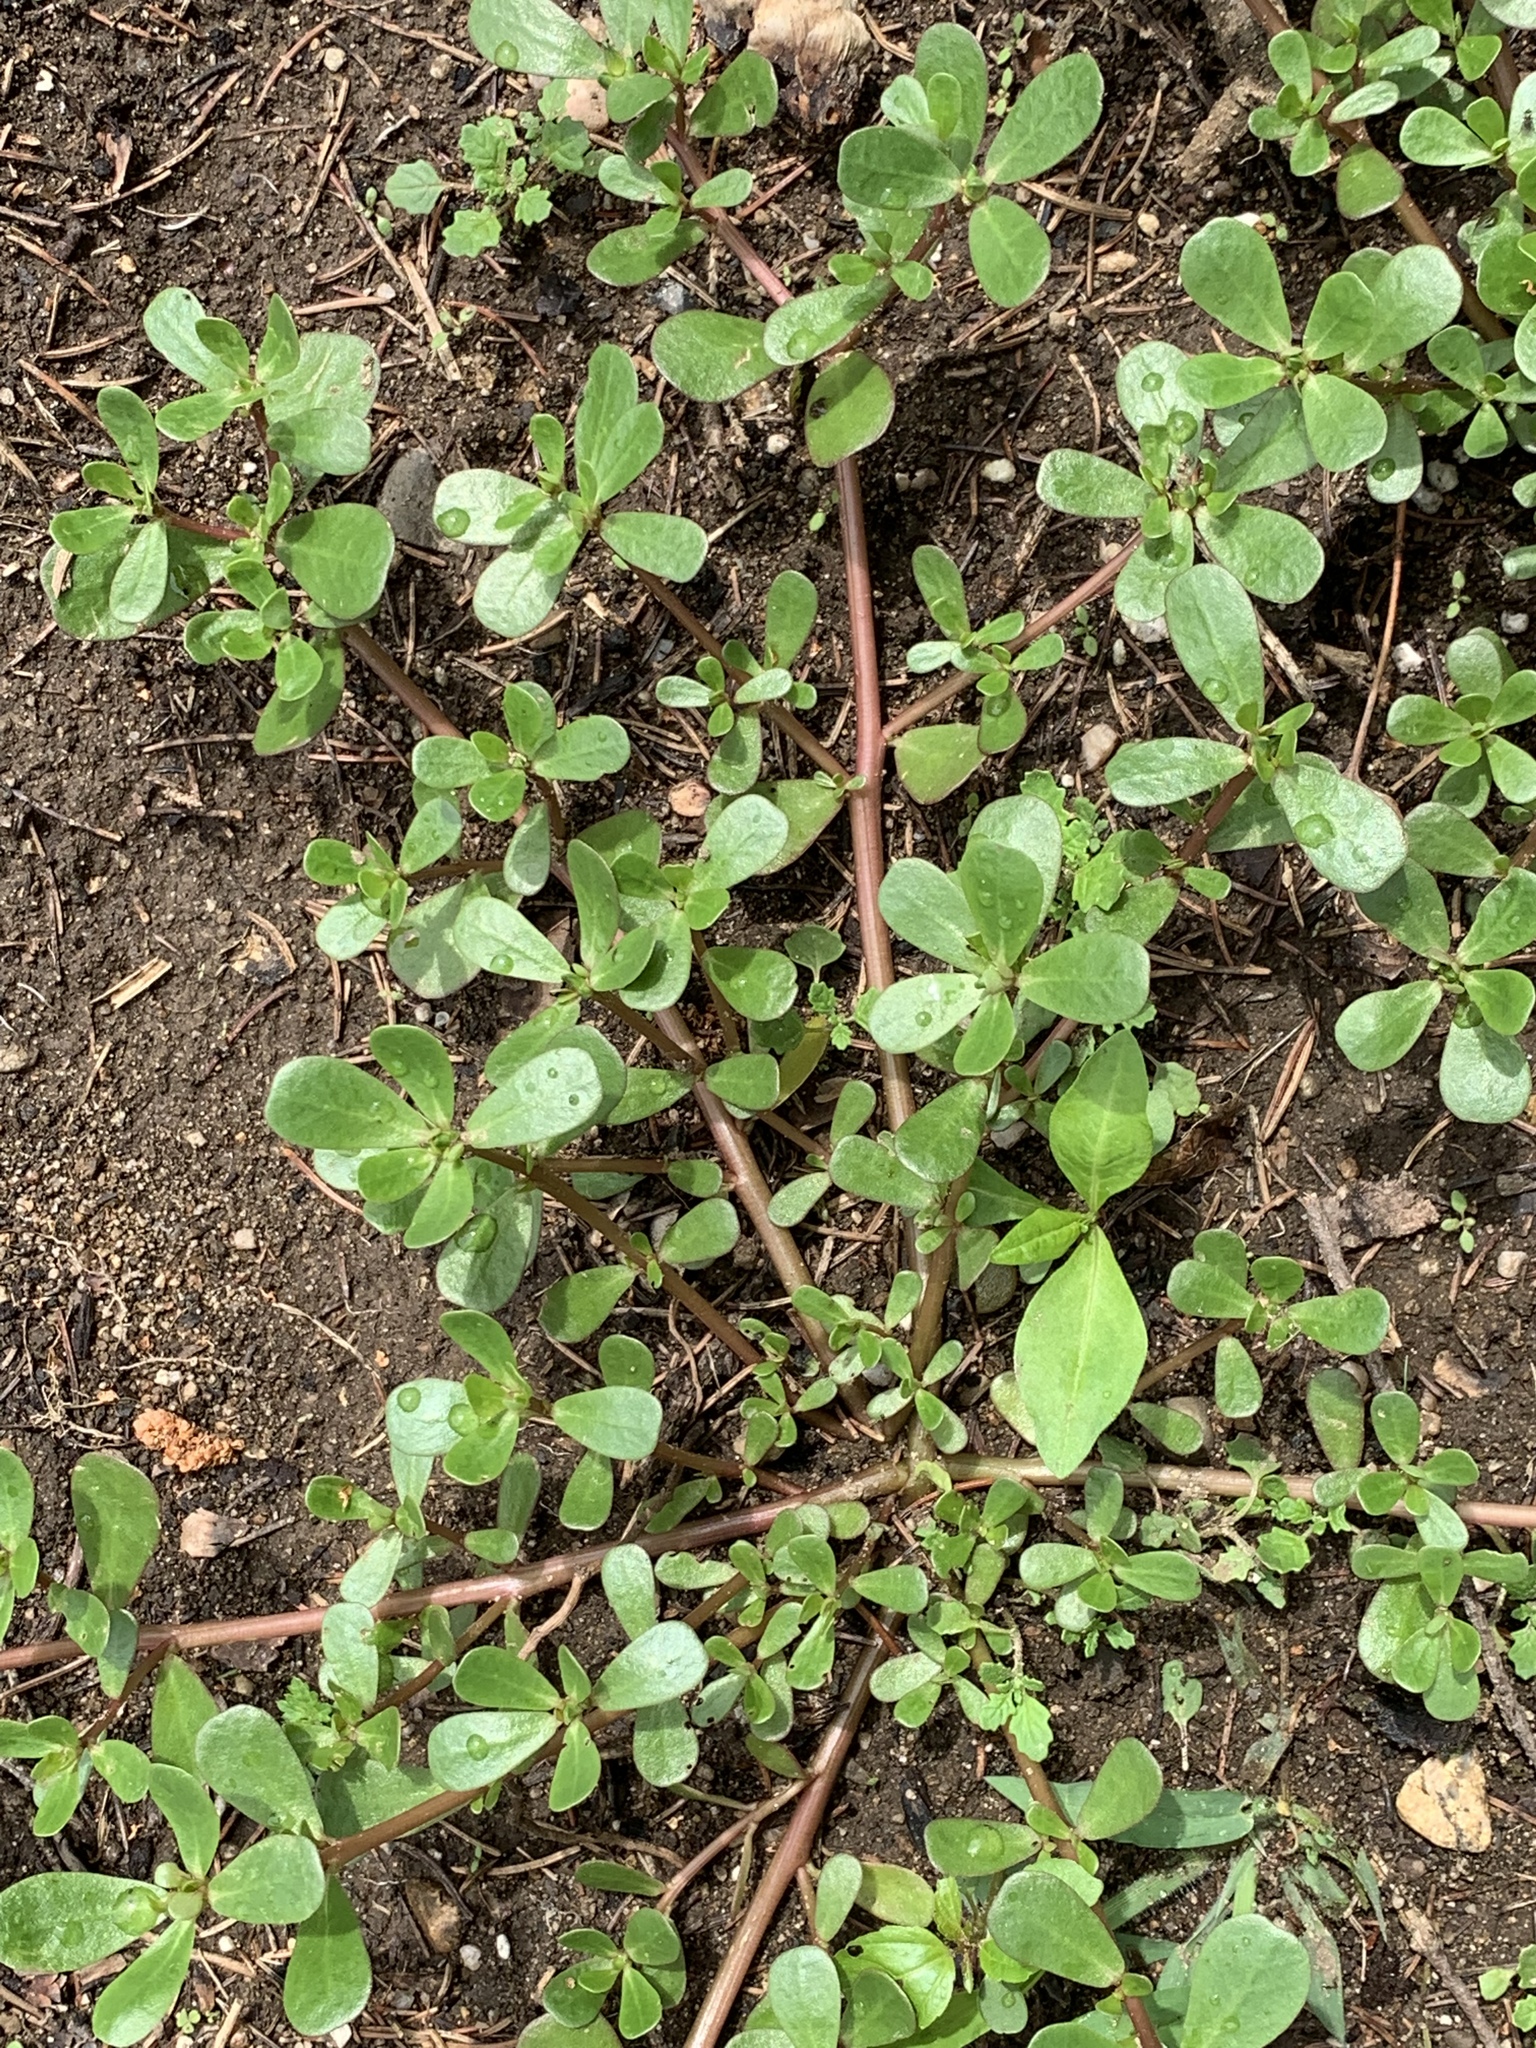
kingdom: Plantae
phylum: Tracheophyta
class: Magnoliopsida
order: Caryophyllales
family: Portulacaceae
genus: Portulaca
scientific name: Portulaca oleracea
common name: Common purslane
